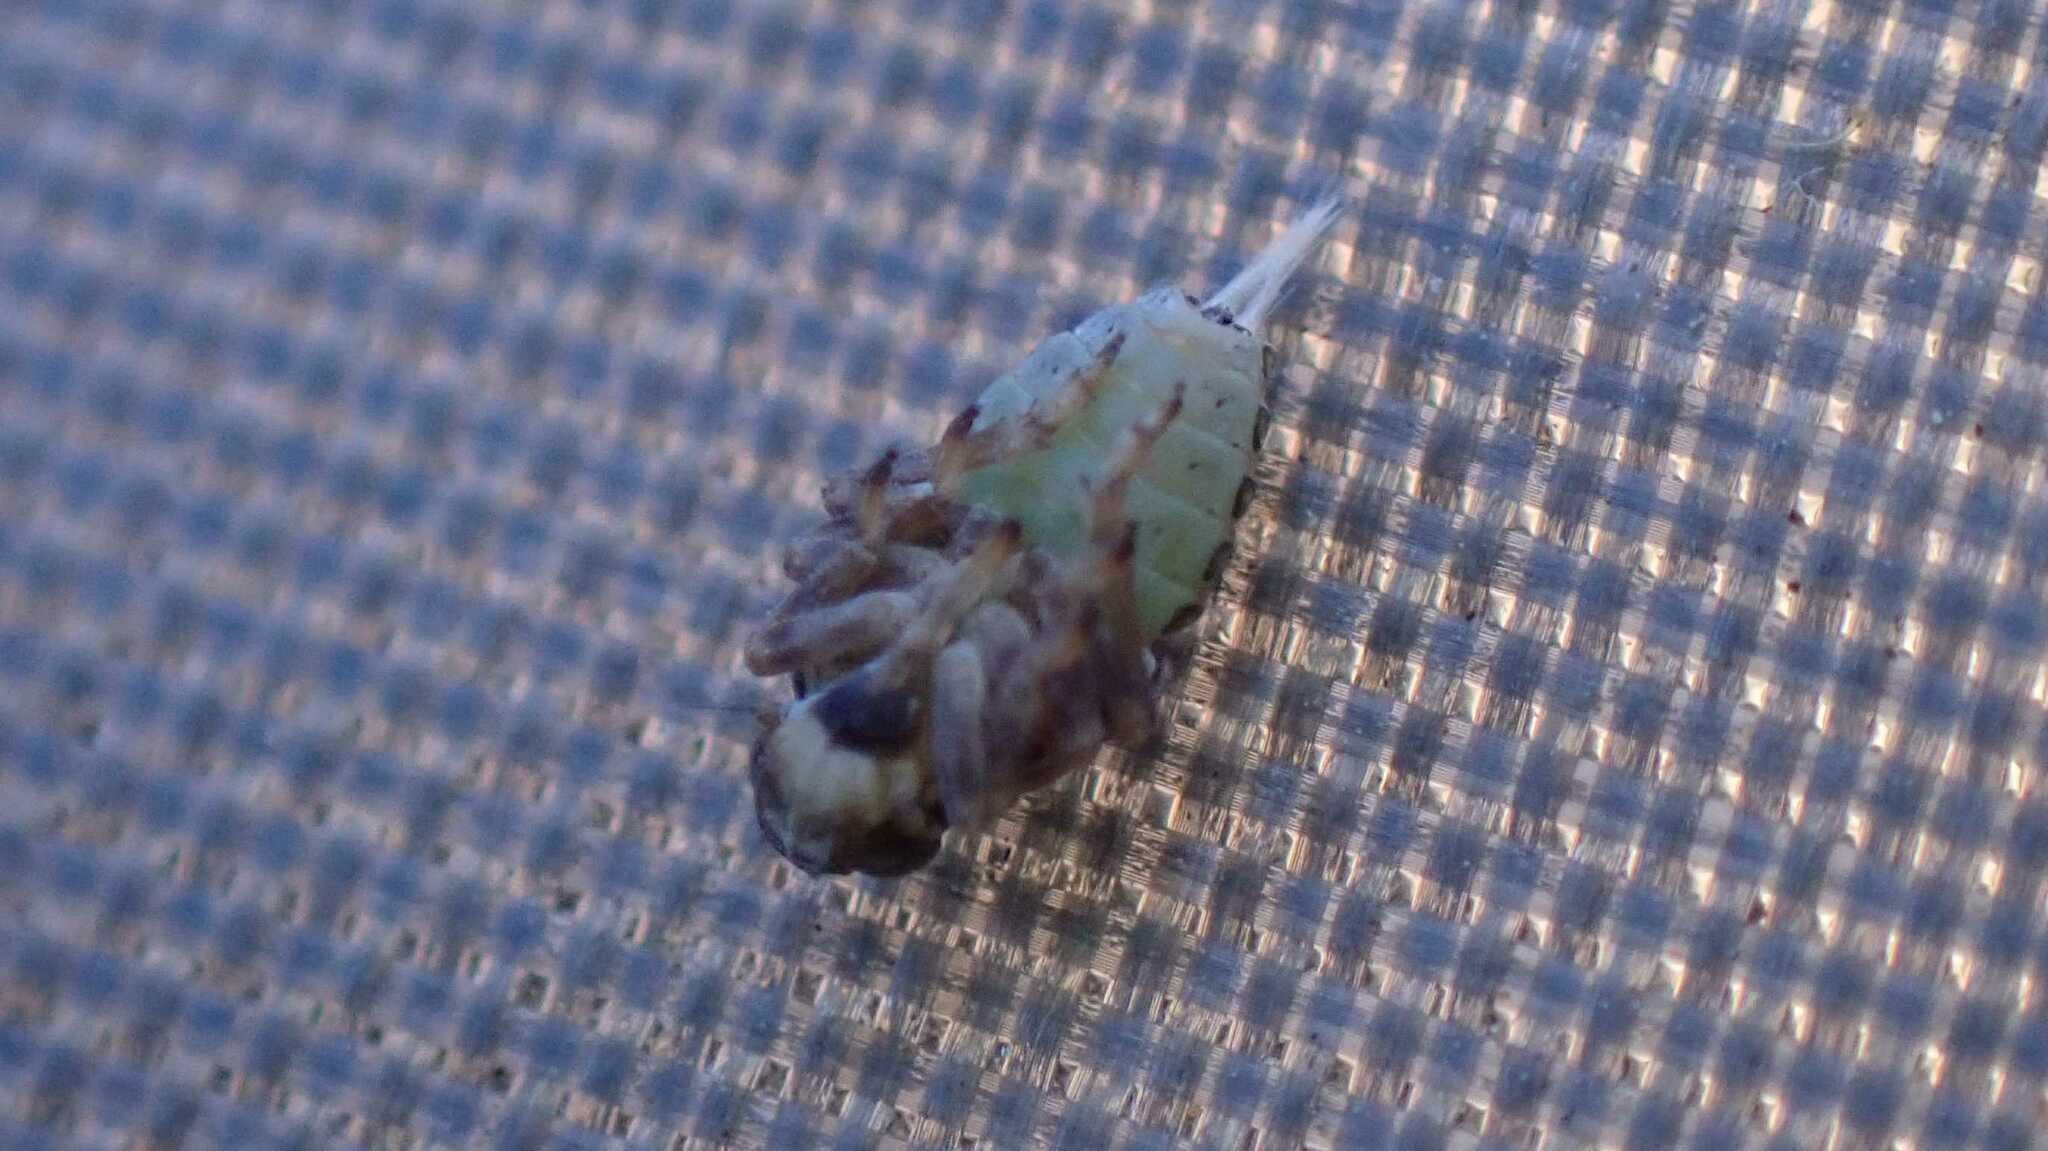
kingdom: Animalia
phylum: Arthropoda
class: Insecta
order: Hemiptera
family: Issidae
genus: Issus
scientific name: Issus coleoptratus
